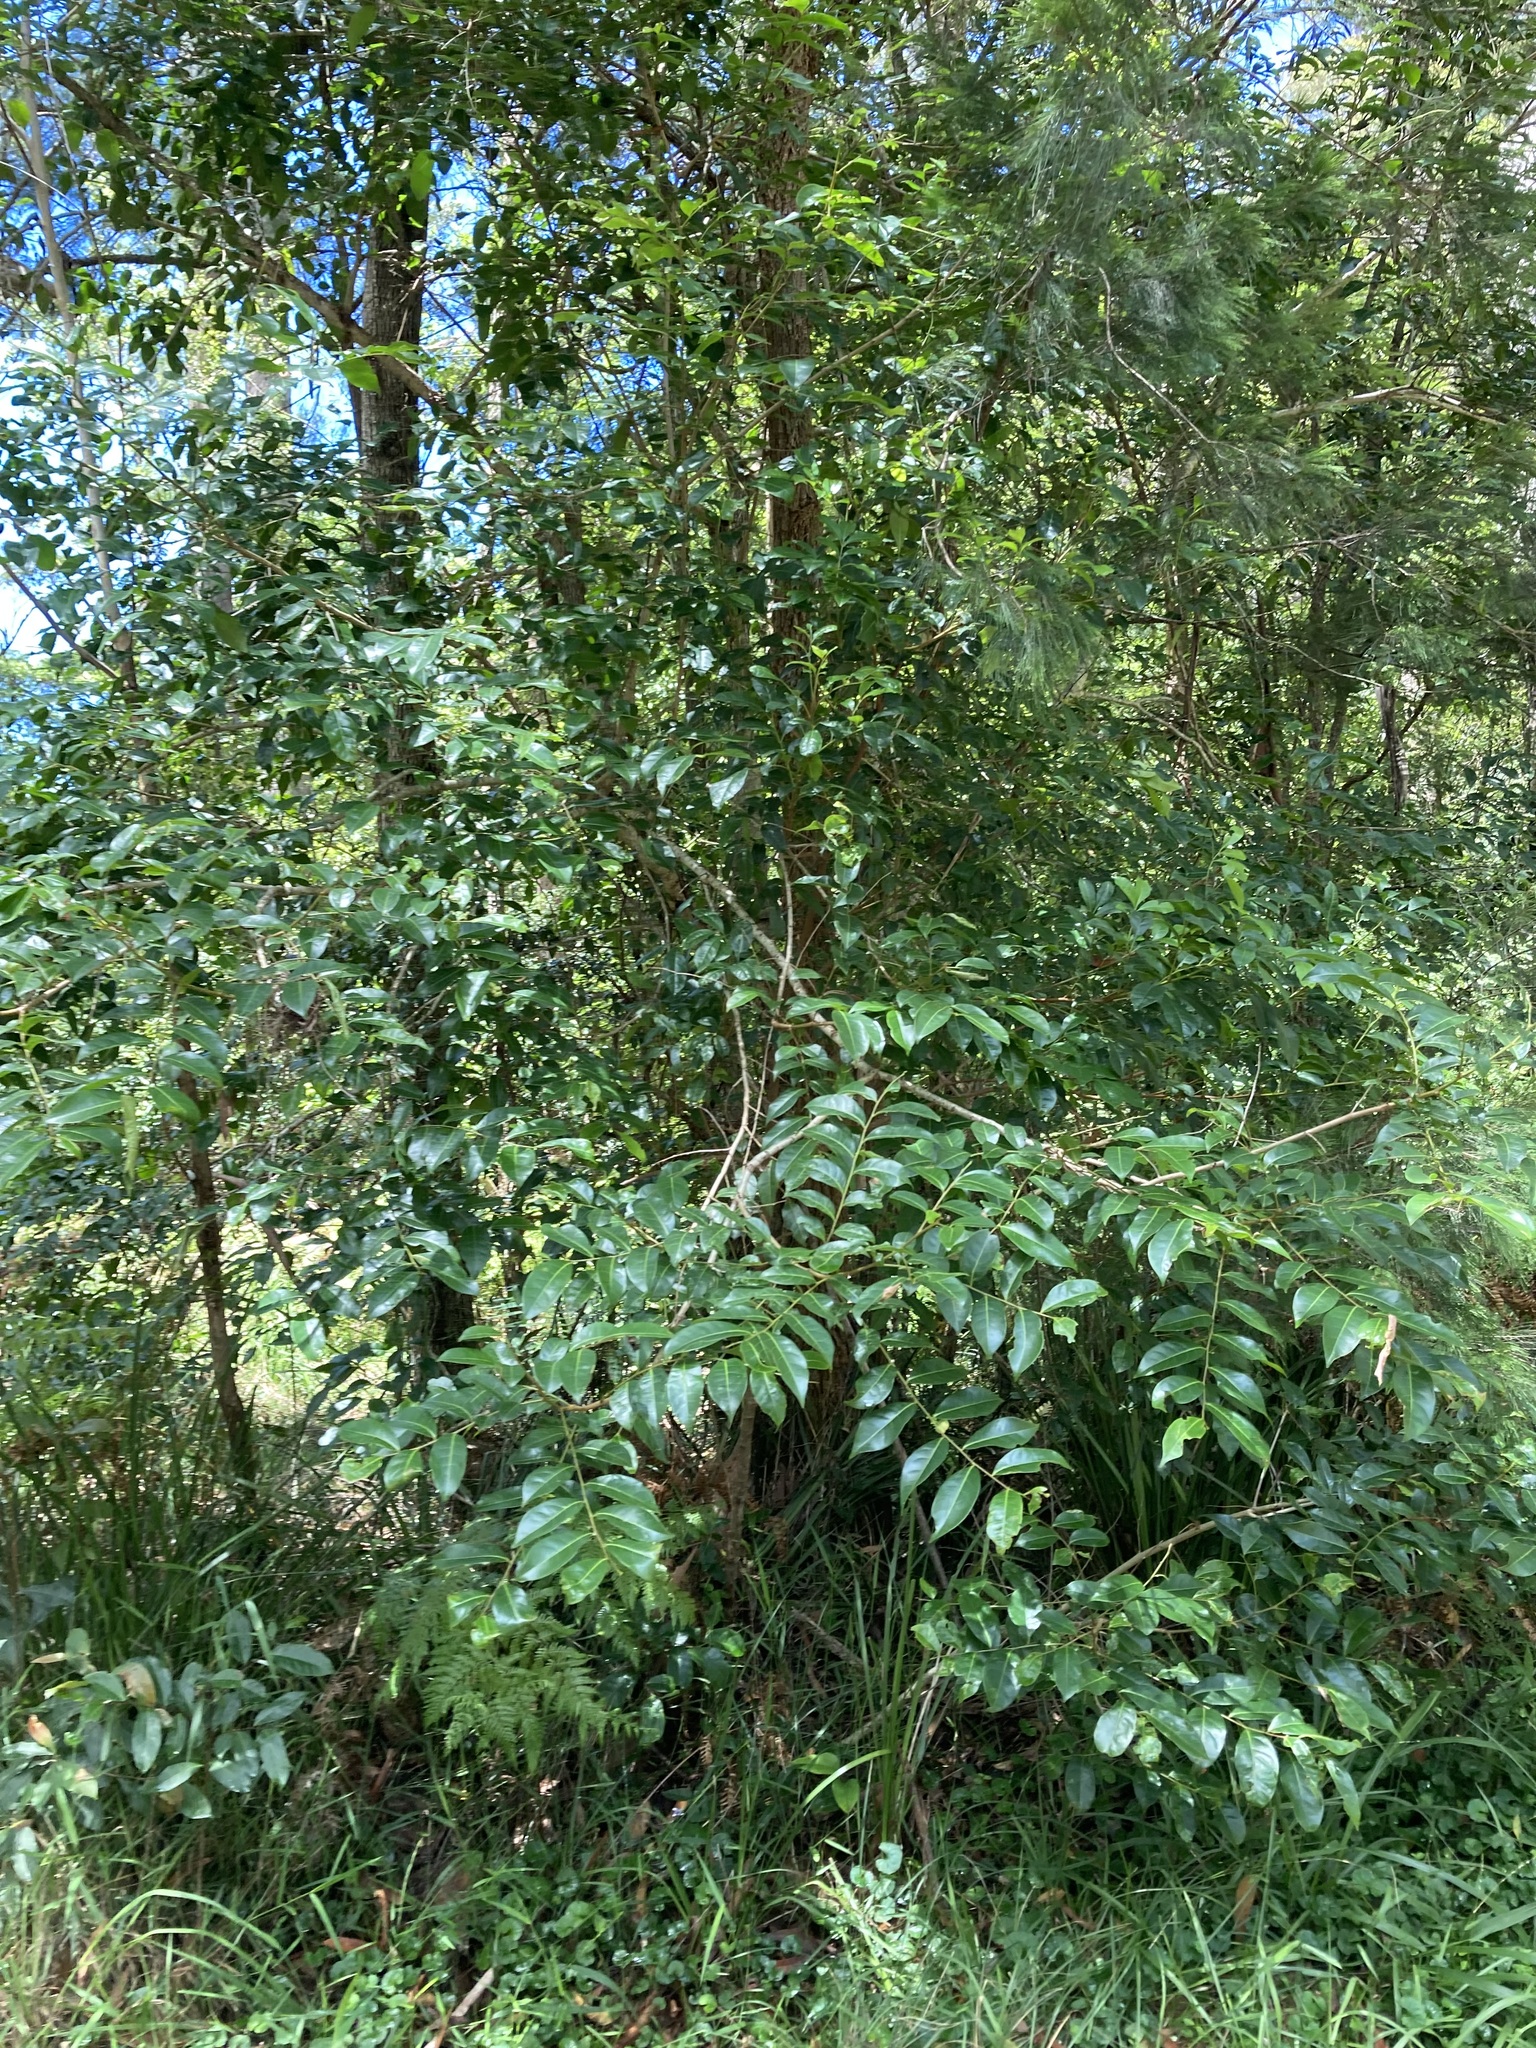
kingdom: Plantae
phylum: Tracheophyta
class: Magnoliopsida
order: Malpighiales
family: Phyllanthaceae
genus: Glochidion
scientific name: Glochidion ferdinandi
